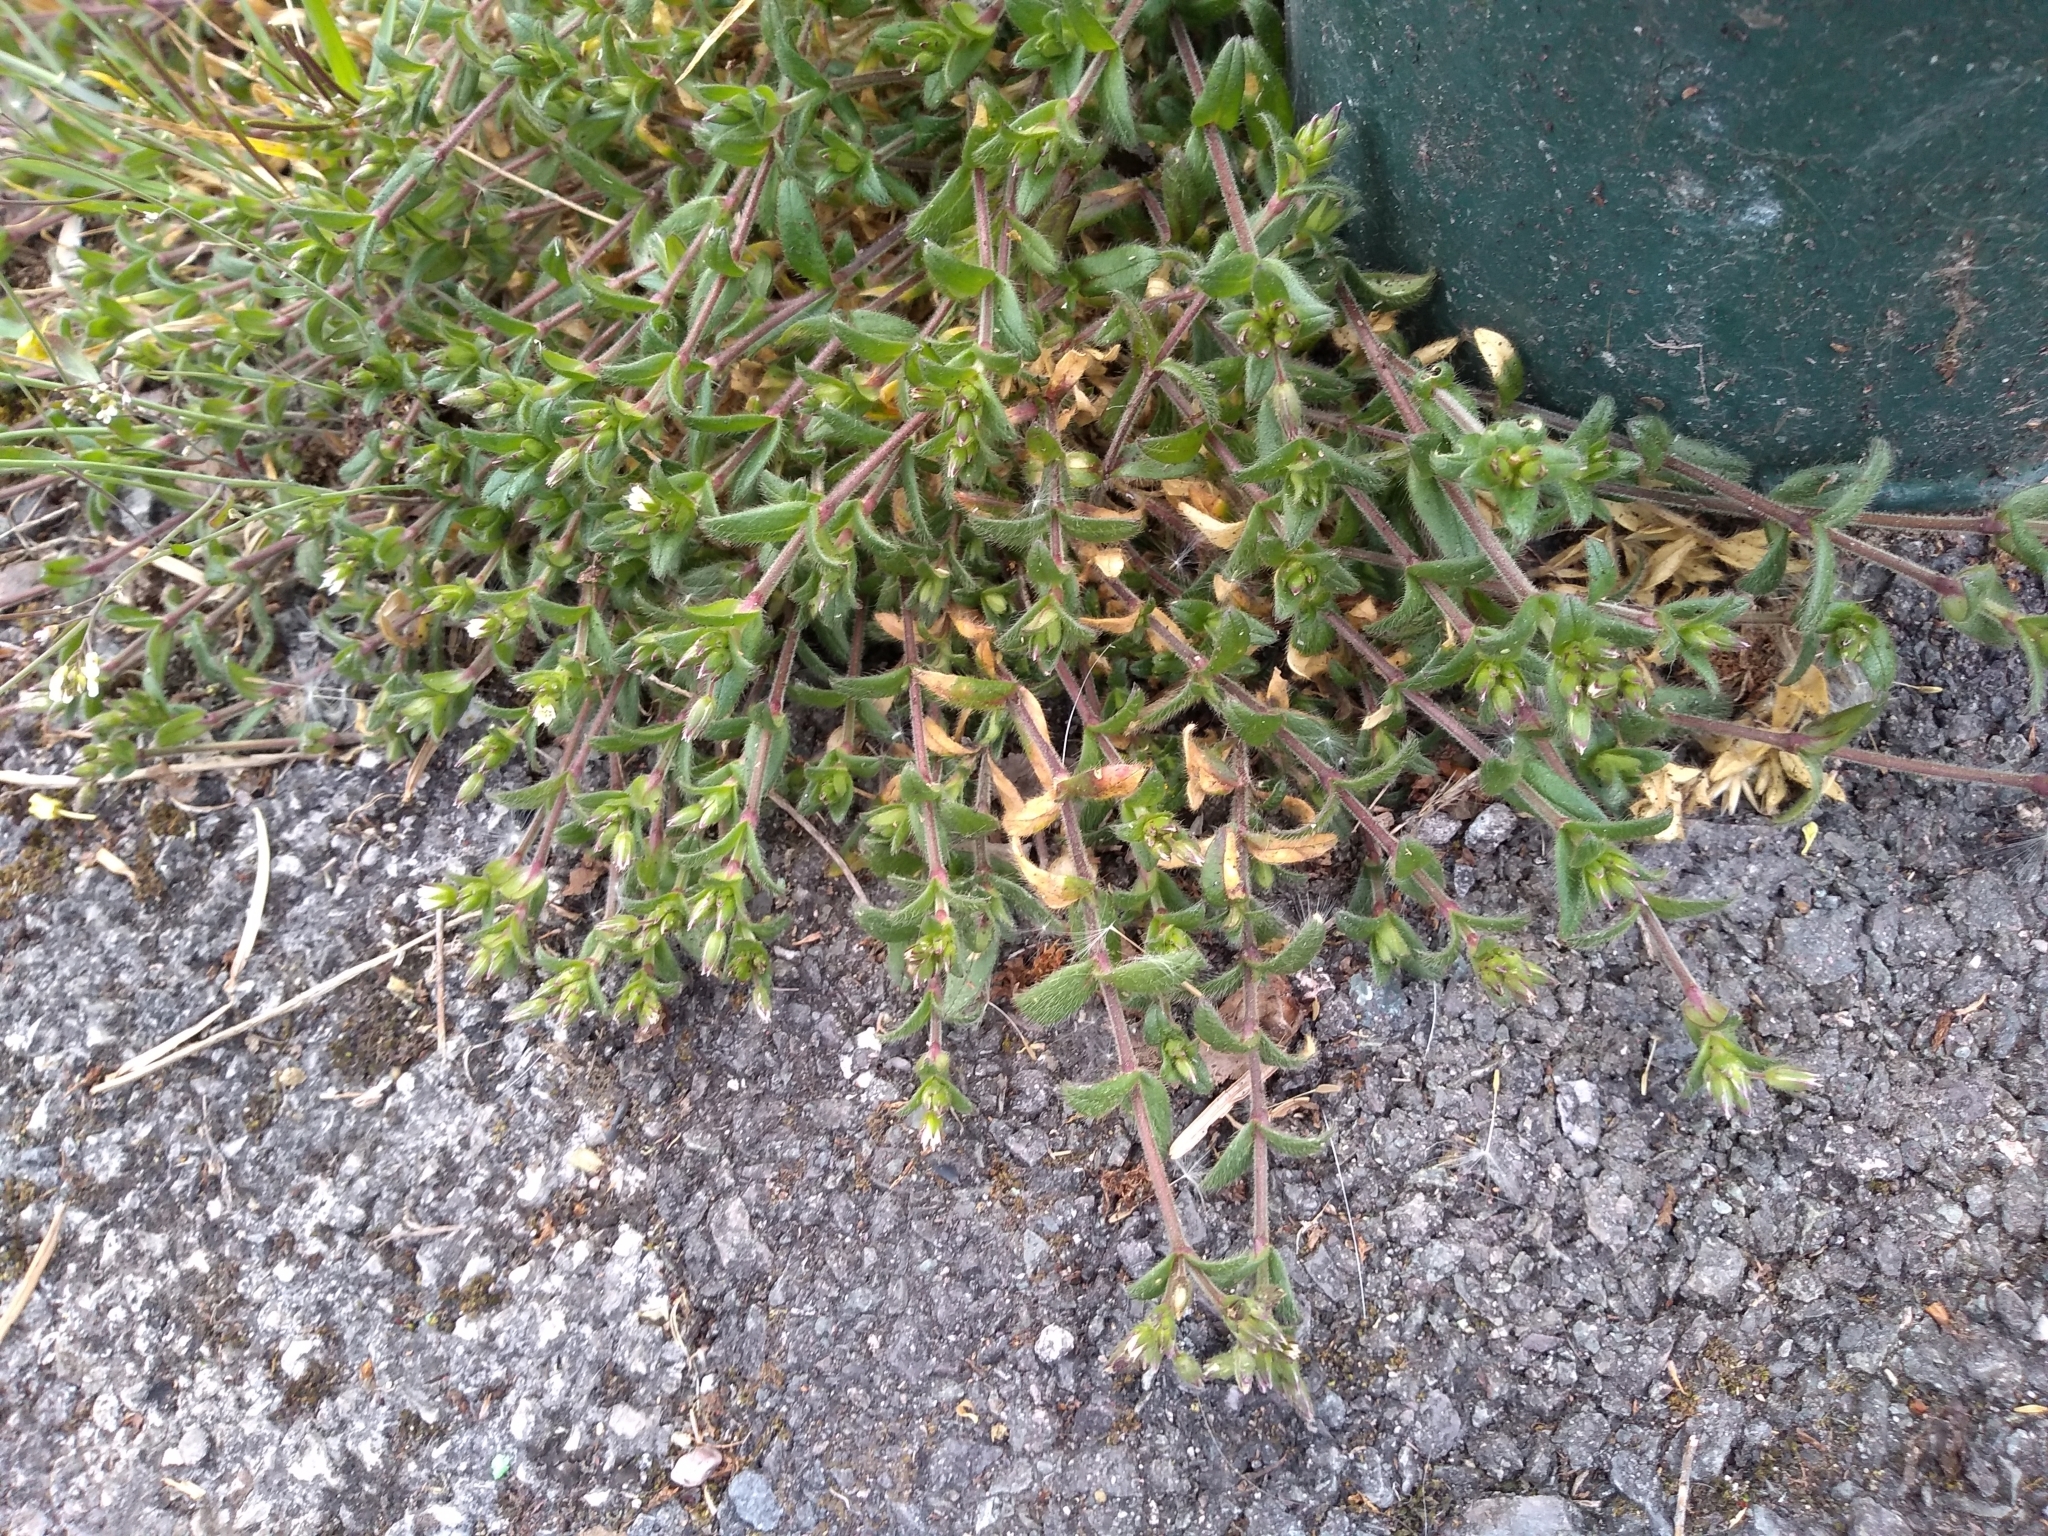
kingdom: Plantae
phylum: Tracheophyta
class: Magnoliopsida
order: Caryophyllales
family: Caryophyllaceae
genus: Cerastium
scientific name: Cerastium fontanum
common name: Common mouse-ear
